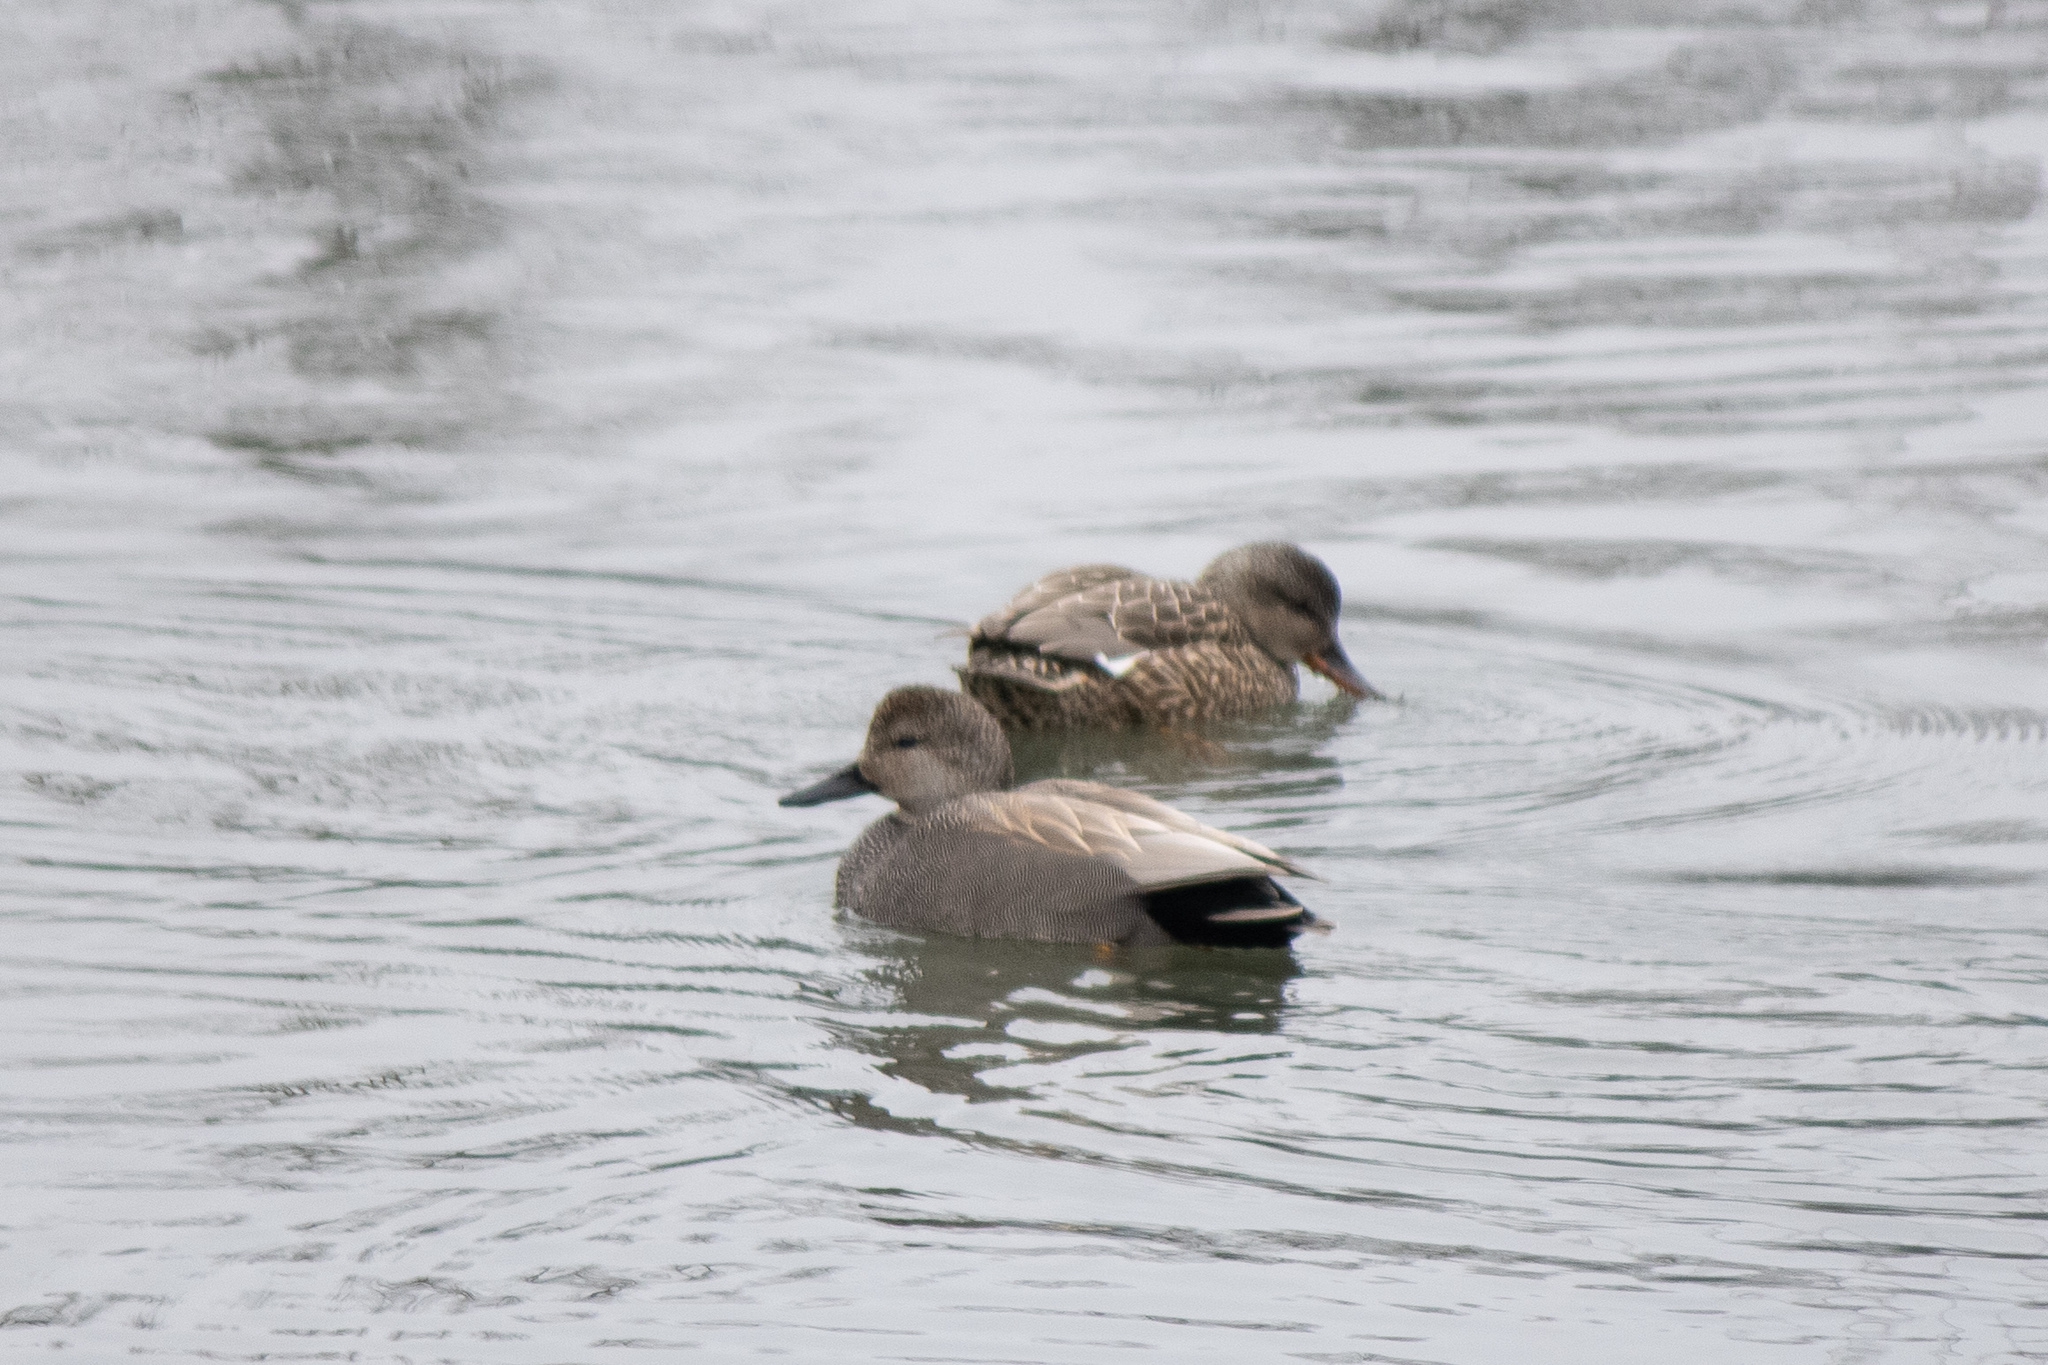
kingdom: Animalia
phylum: Chordata
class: Aves
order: Anseriformes
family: Anatidae
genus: Mareca
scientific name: Mareca strepera
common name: Gadwall
